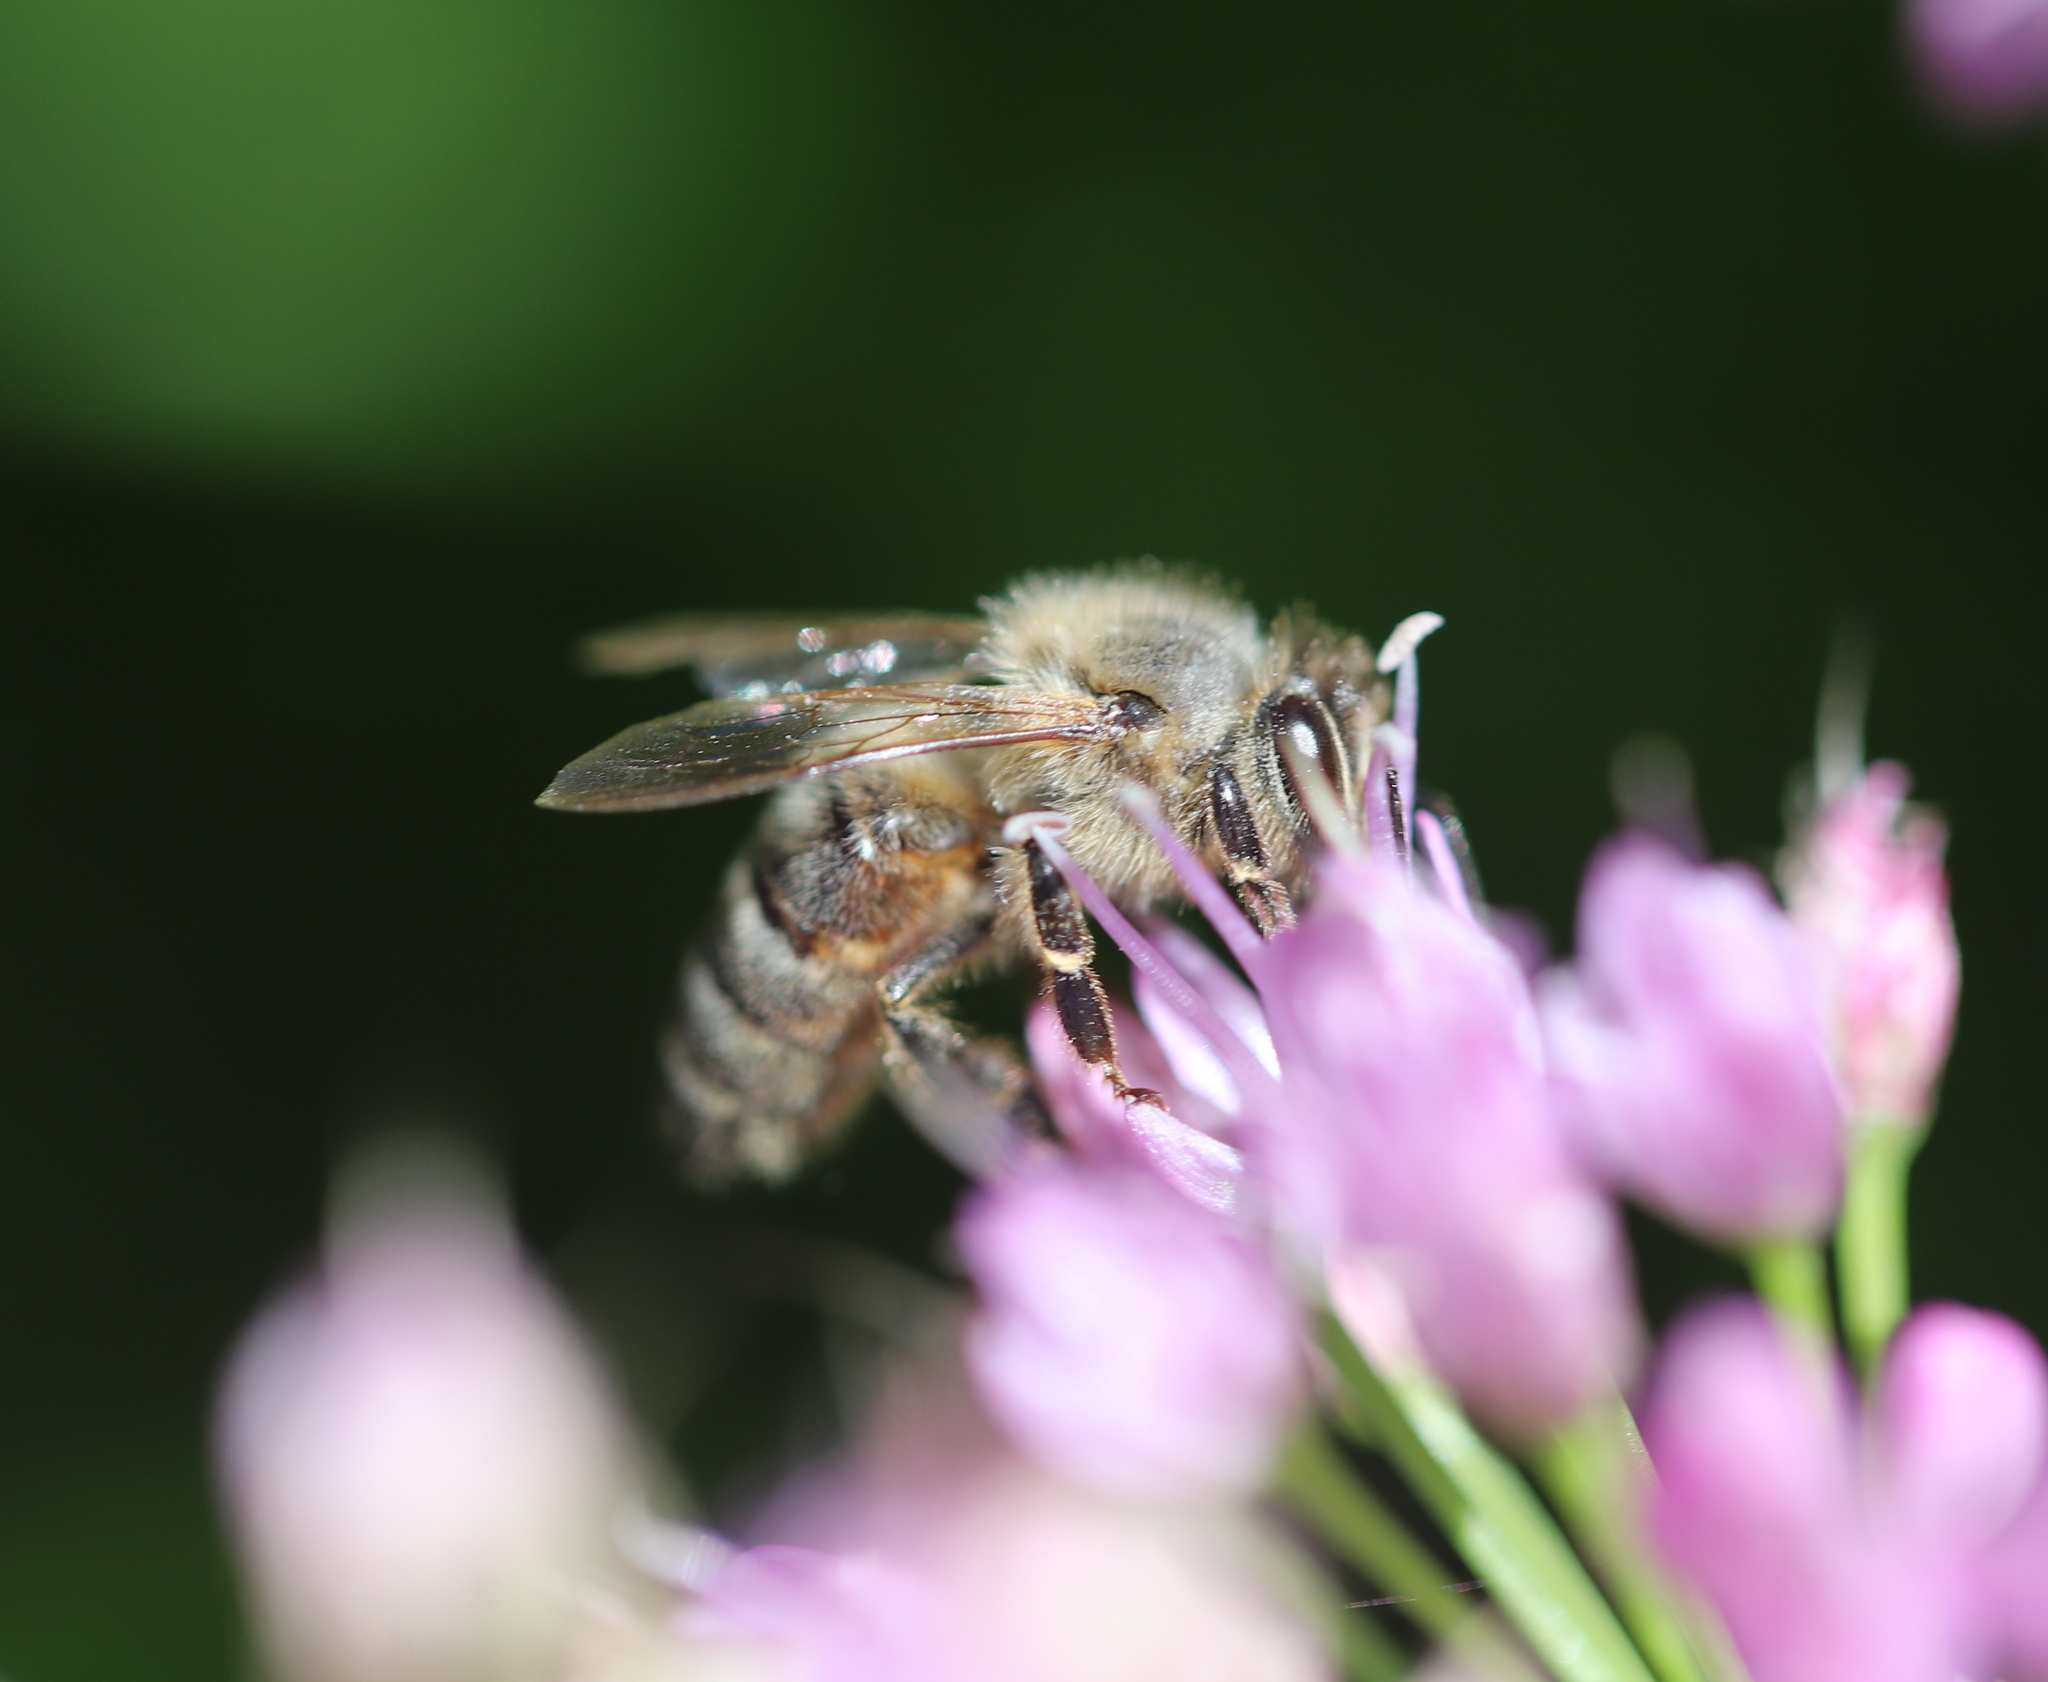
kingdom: Animalia
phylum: Arthropoda
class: Insecta
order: Hymenoptera
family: Apidae
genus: Apis
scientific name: Apis mellifera
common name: Honey bee
